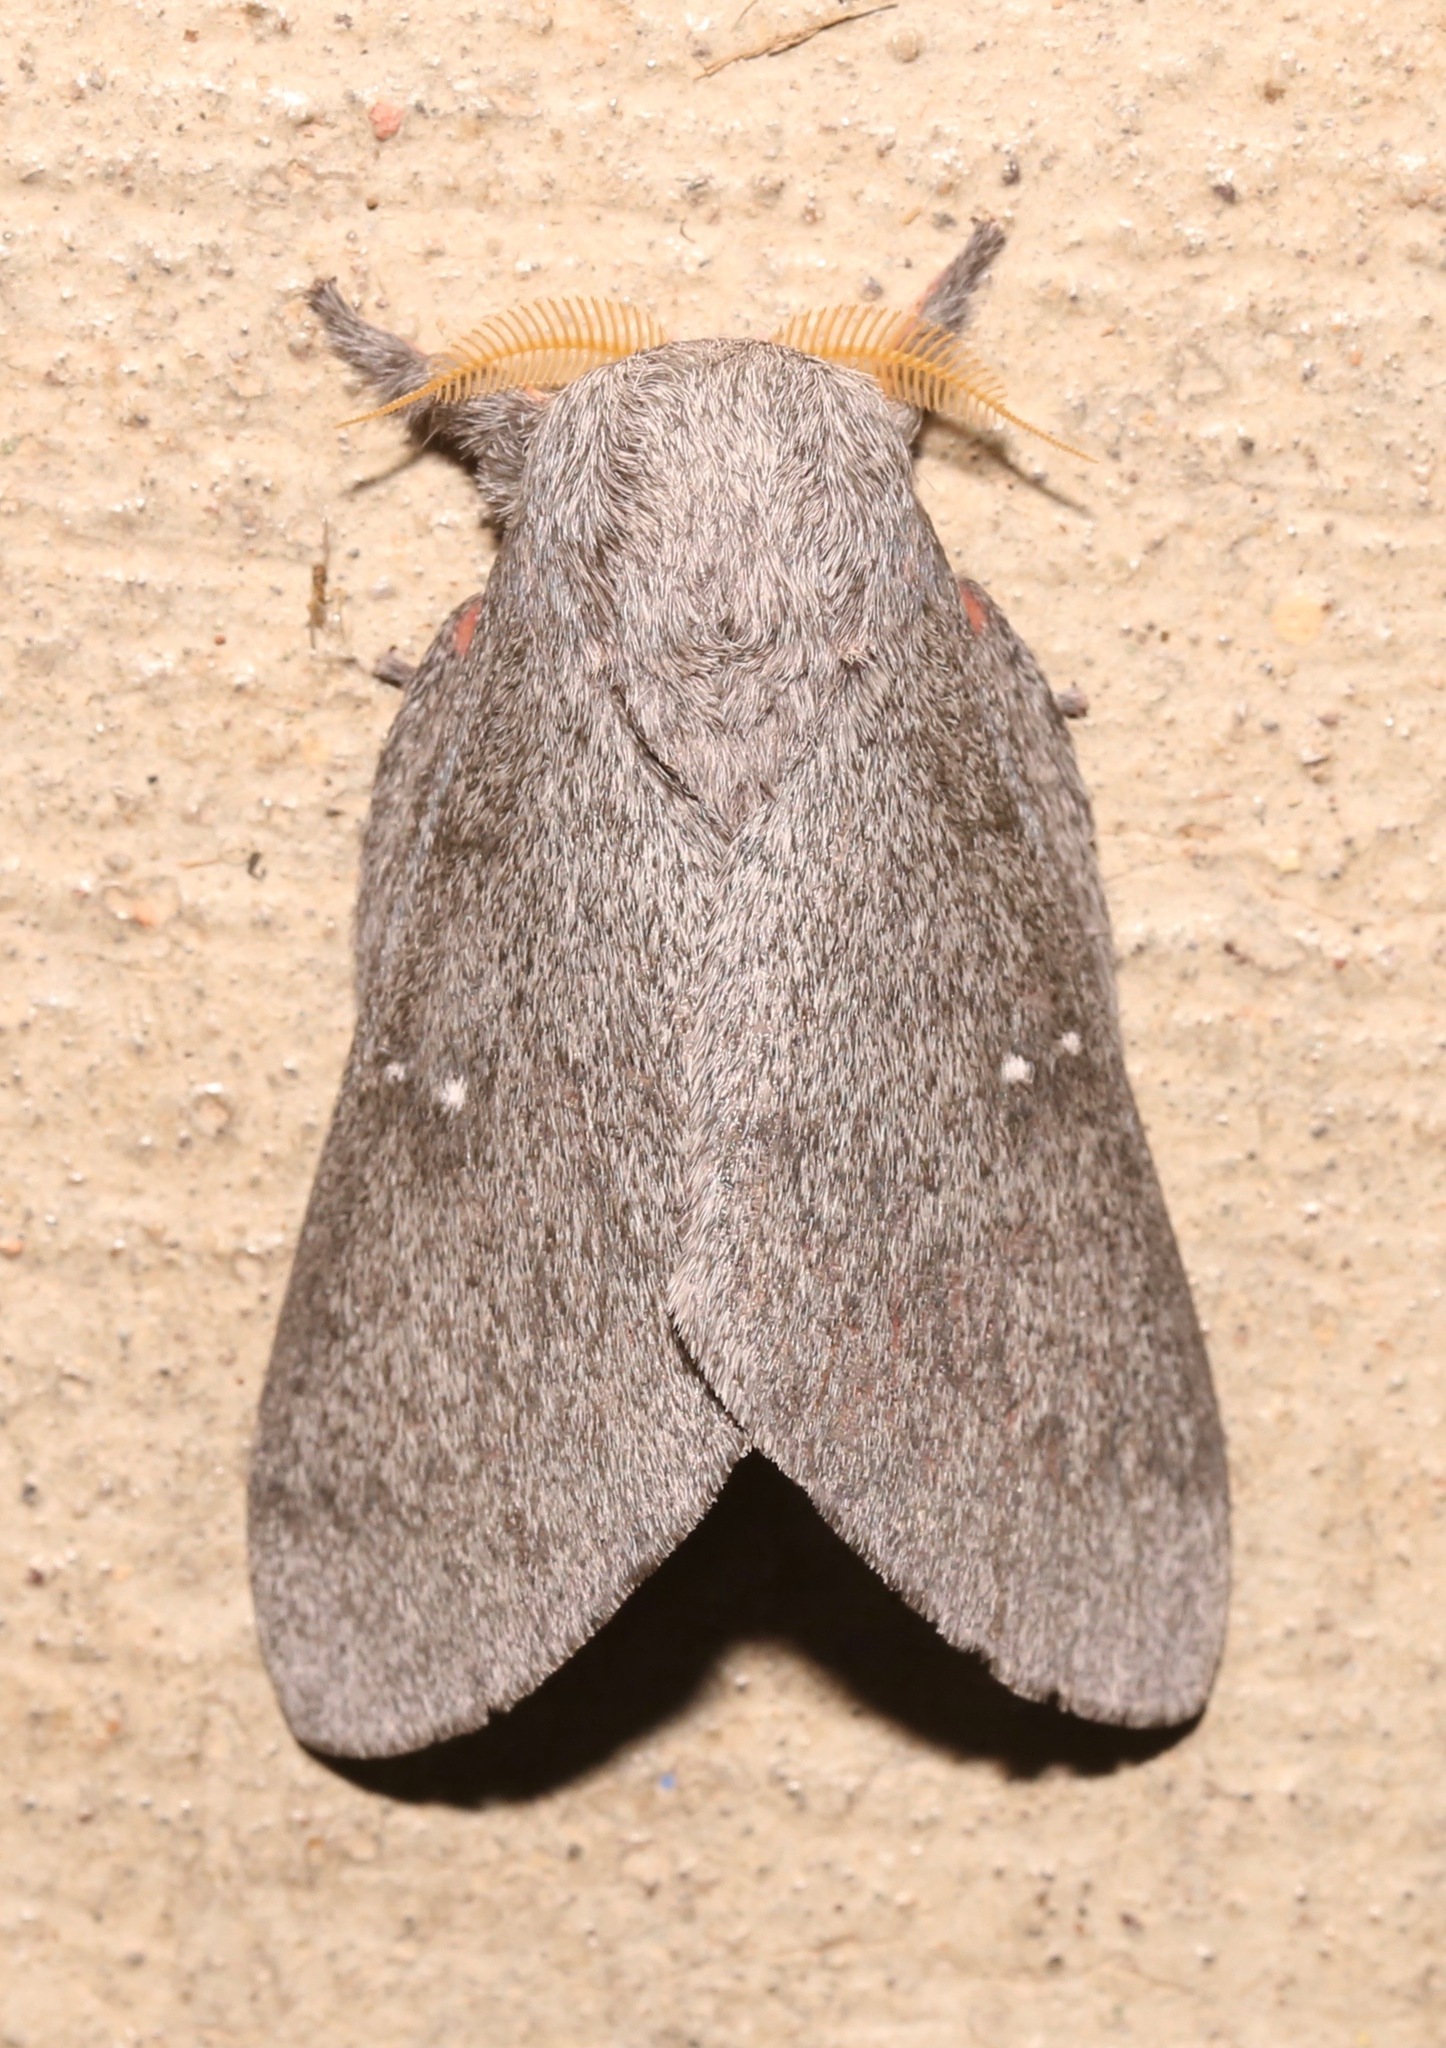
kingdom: Animalia
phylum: Arthropoda
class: Insecta
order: Lepidoptera
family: Saturniidae
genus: Syssphinx
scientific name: Syssphinx hubbardi
